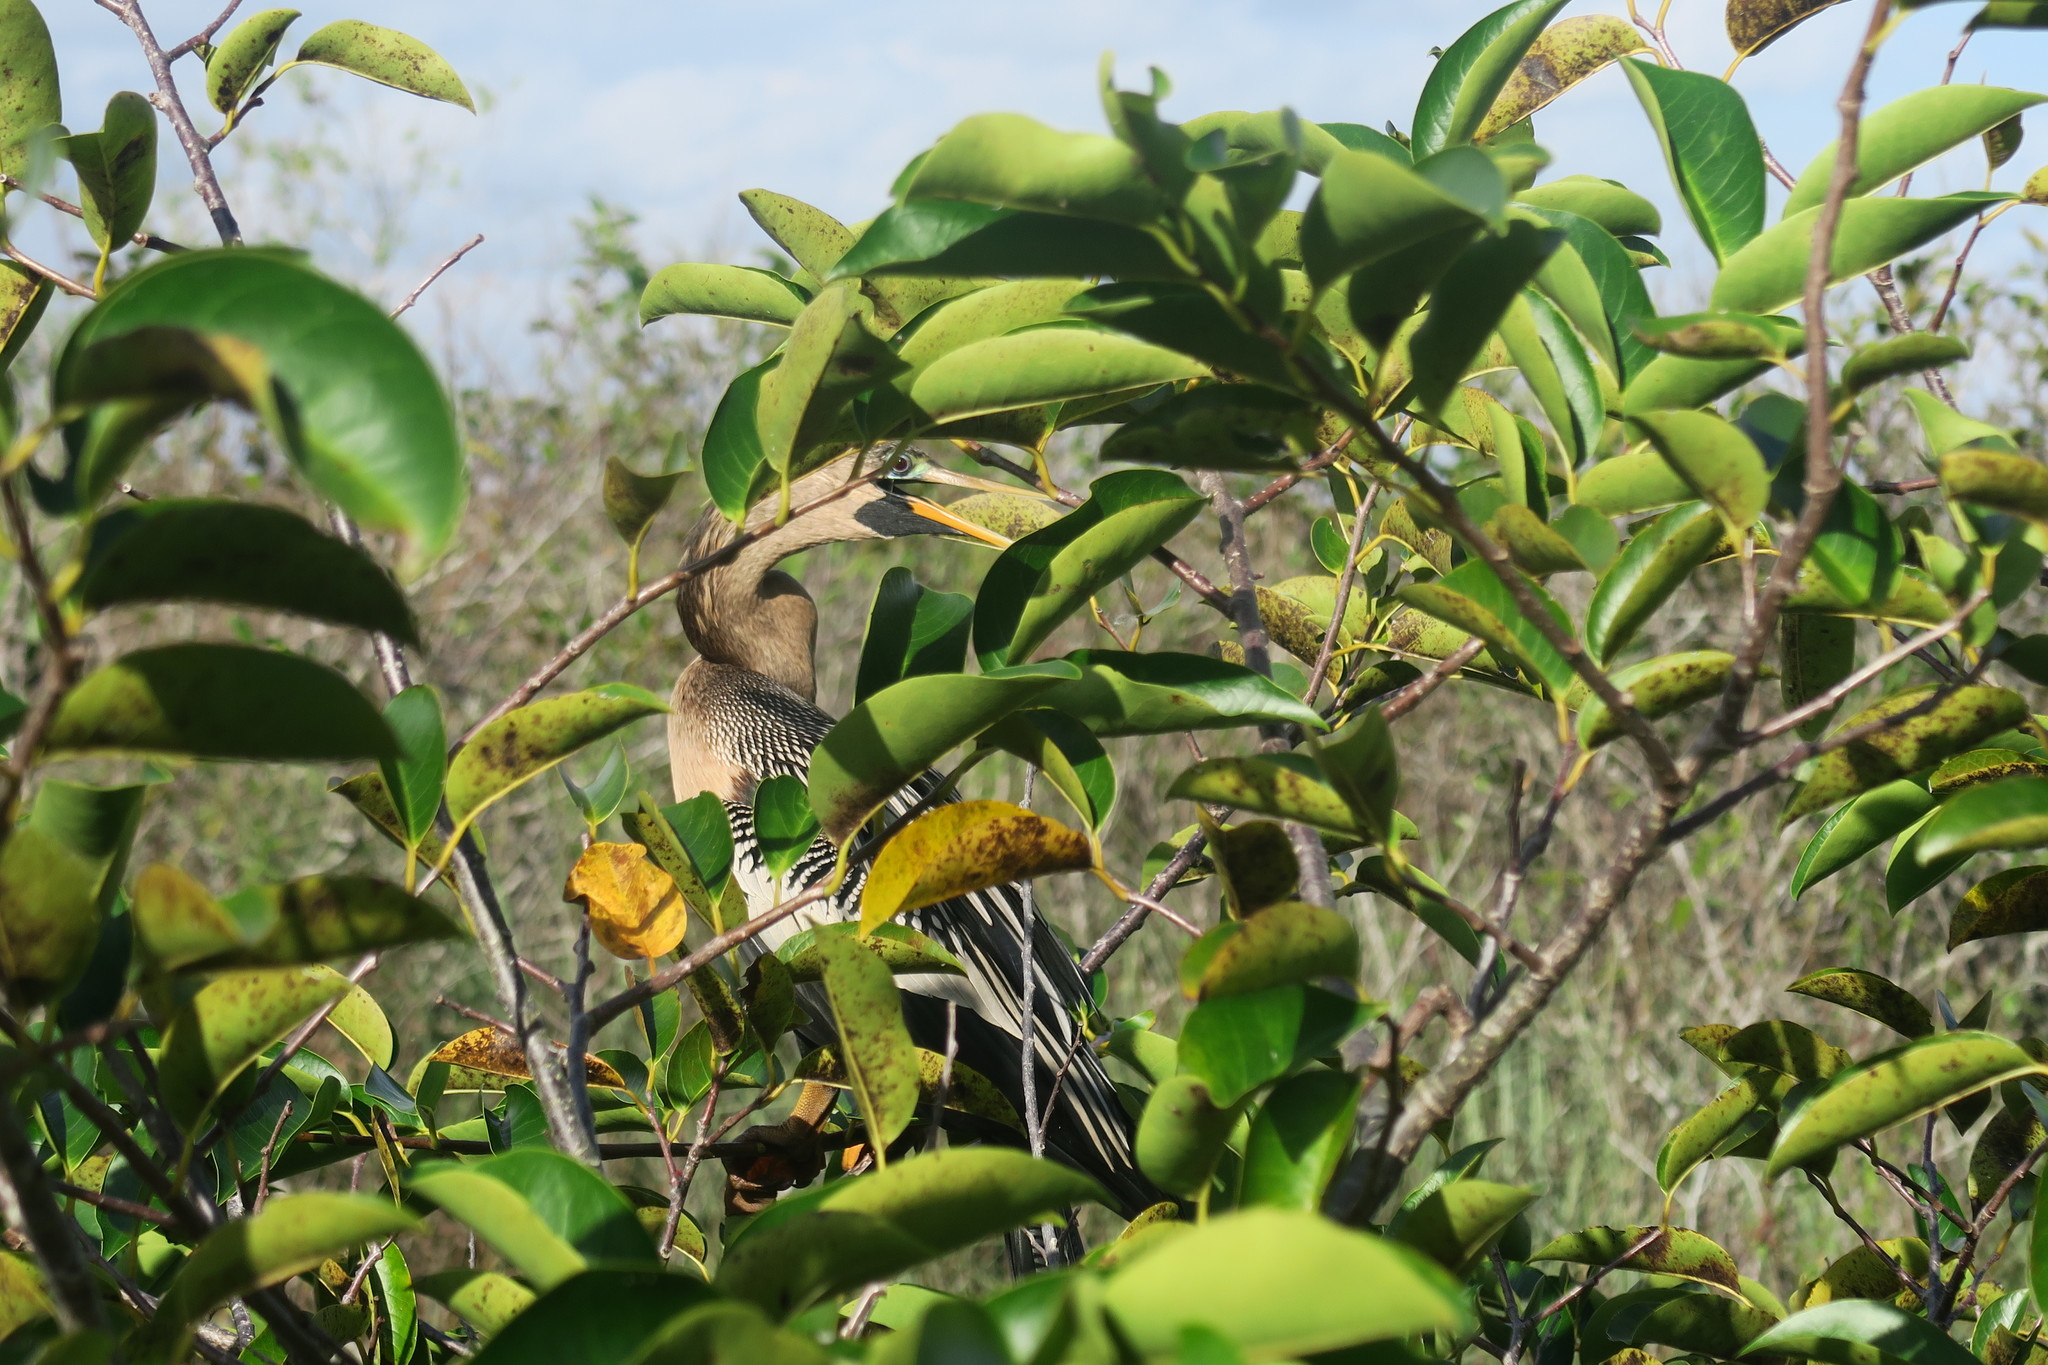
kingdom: Animalia
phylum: Chordata
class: Aves
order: Suliformes
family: Anhingidae
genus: Anhinga
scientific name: Anhinga anhinga
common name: Anhinga
